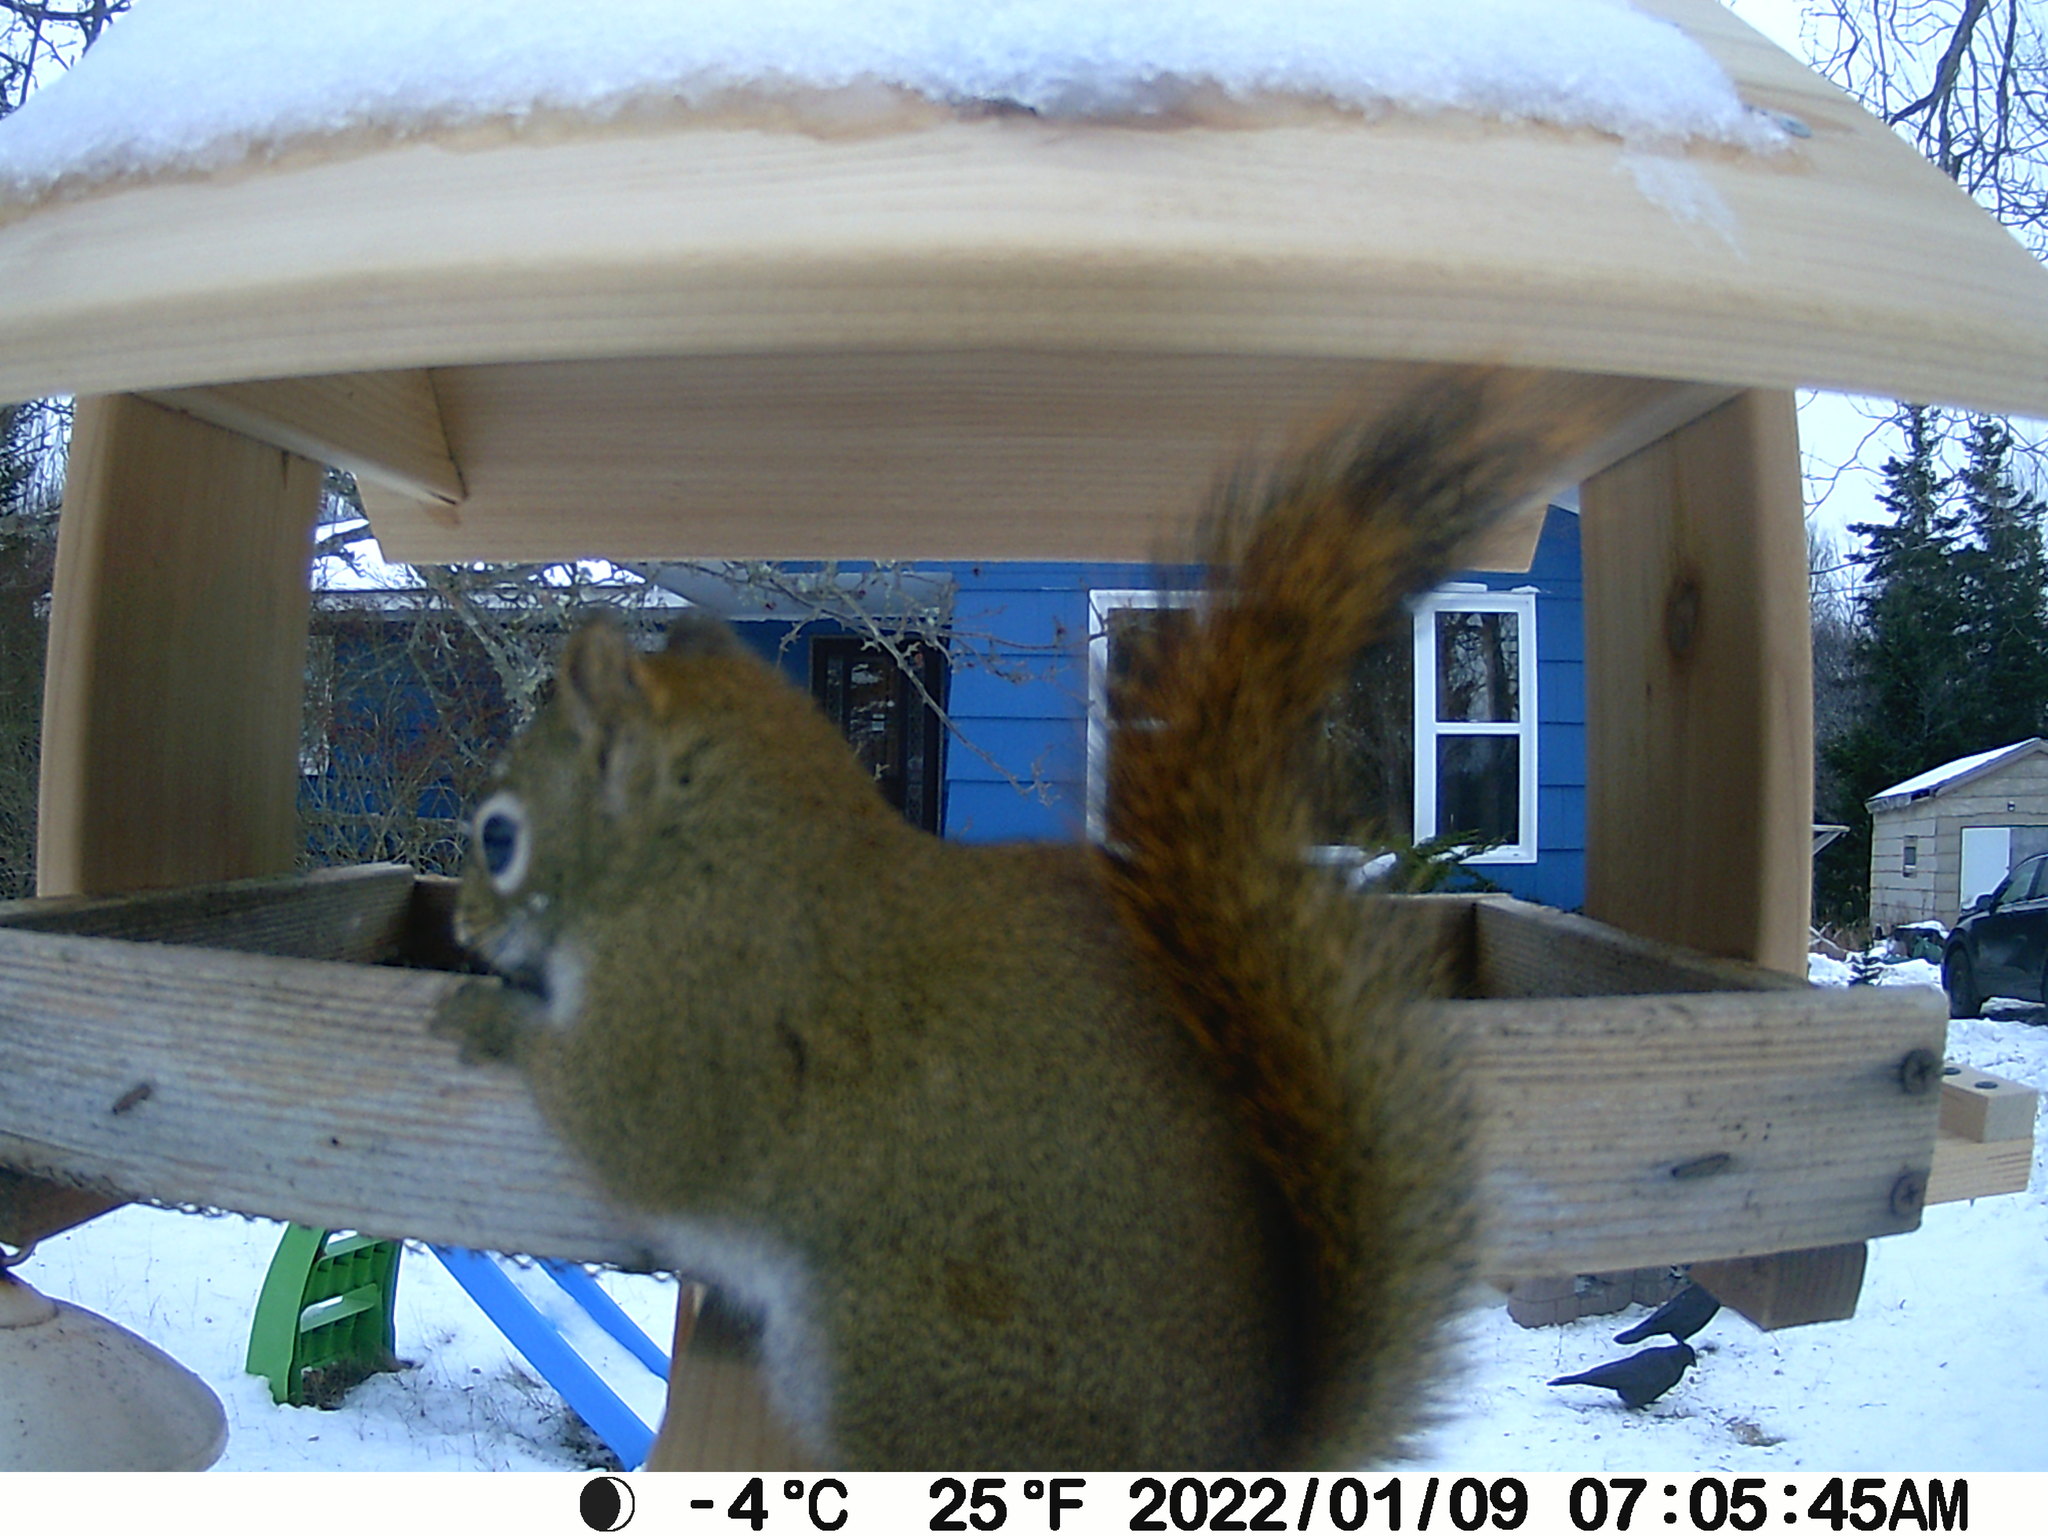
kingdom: Animalia
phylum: Chordata
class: Mammalia
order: Rodentia
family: Sciuridae
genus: Tamiasciurus
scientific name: Tamiasciurus hudsonicus
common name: Red squirrel
